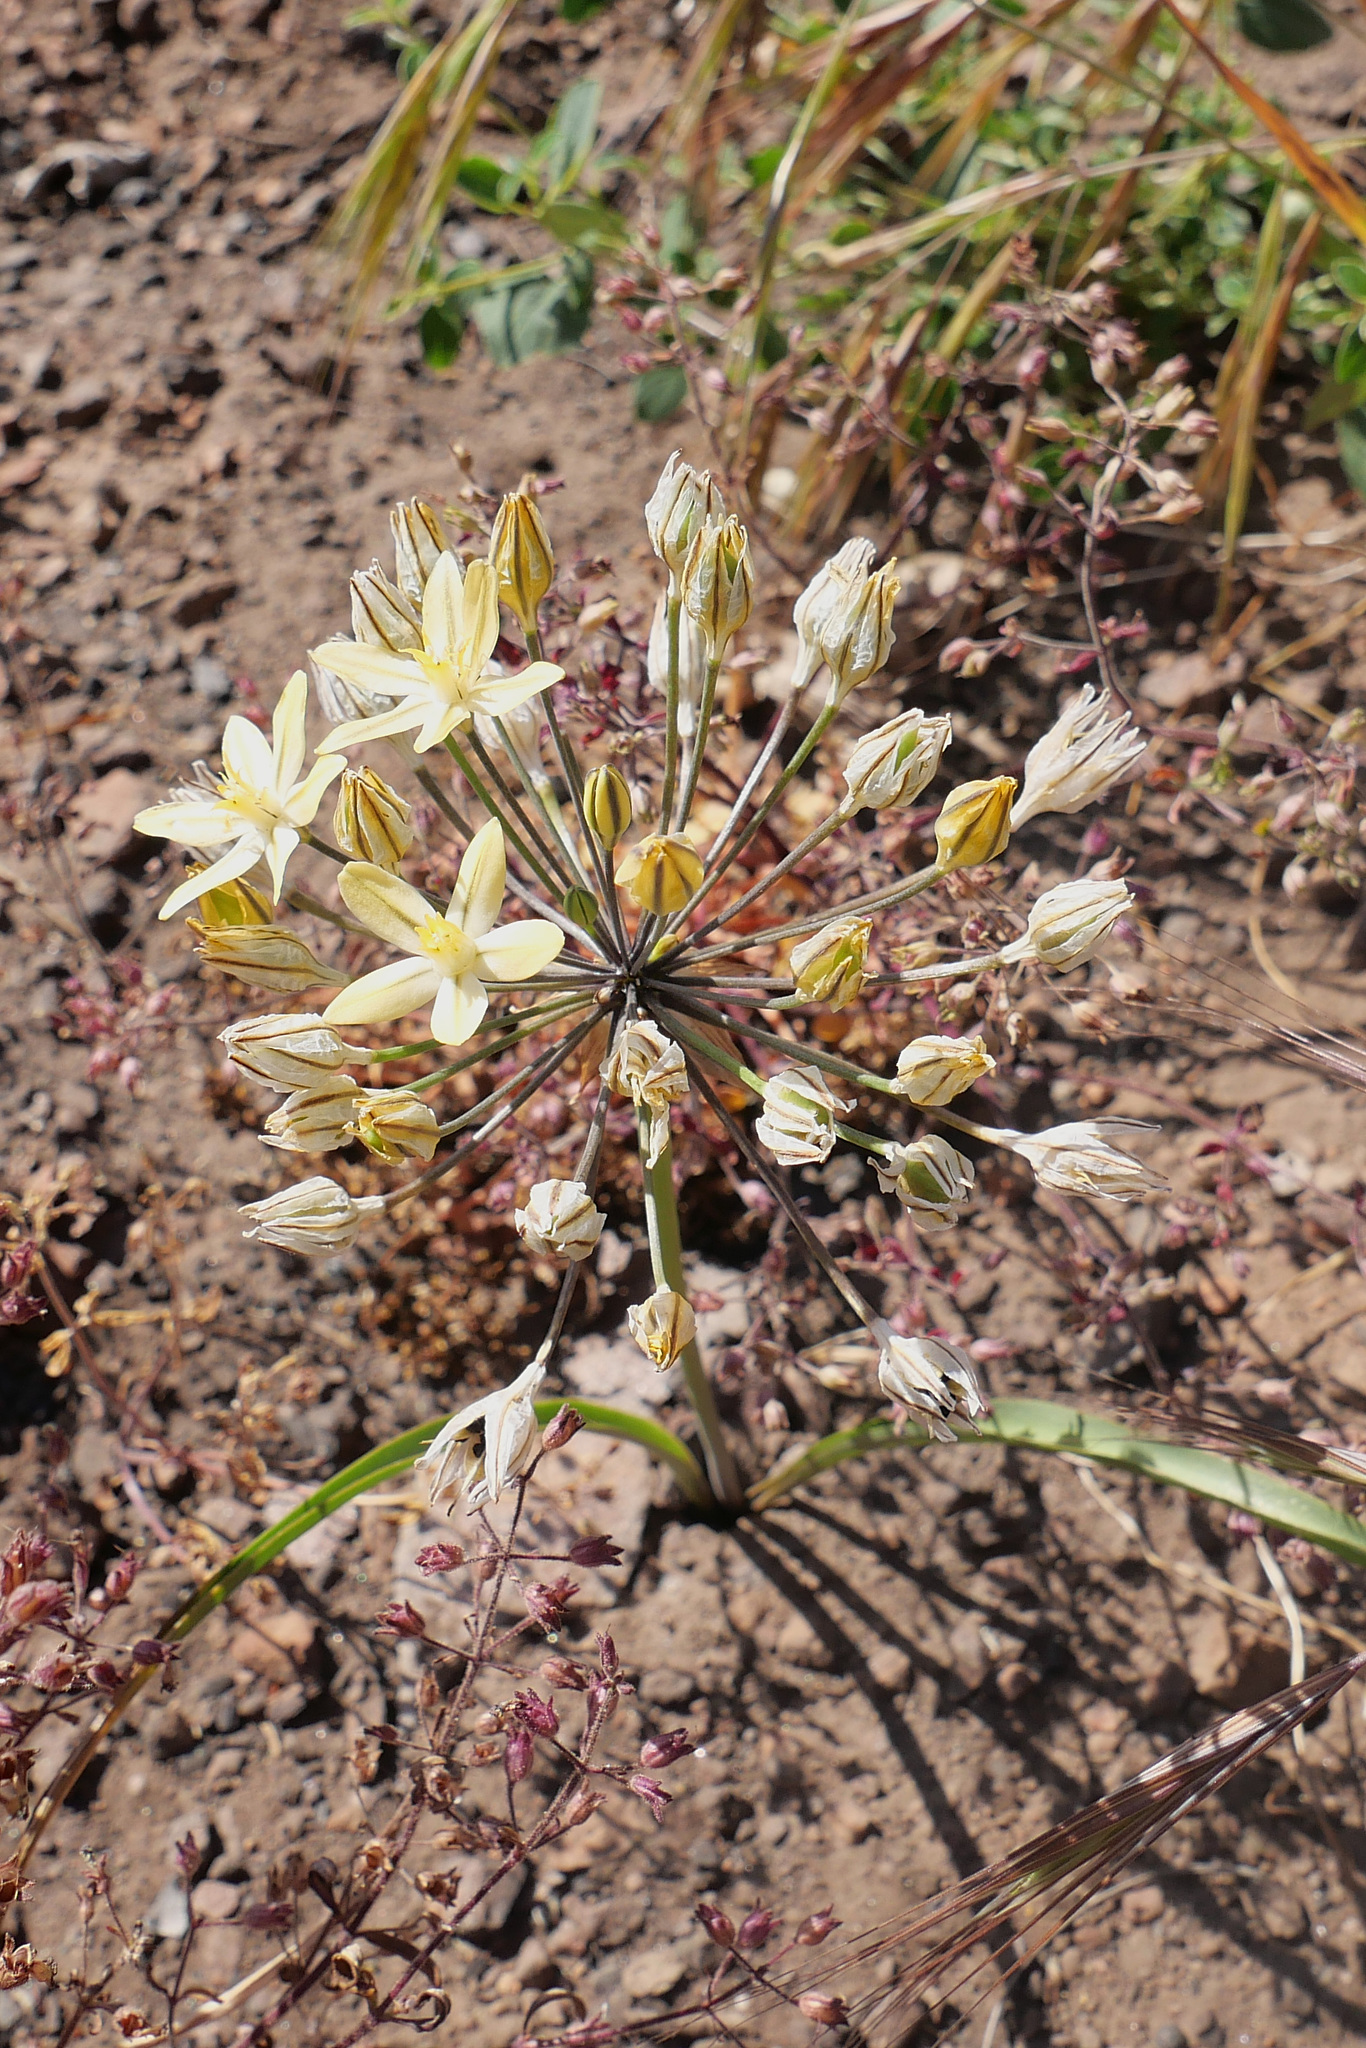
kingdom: Plantae
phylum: Tracheophyta
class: Liliopsida
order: Asparagales
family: Asparagaceae
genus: Triteleia
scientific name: Triteleia ixioides
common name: Yellow-brodiaea
